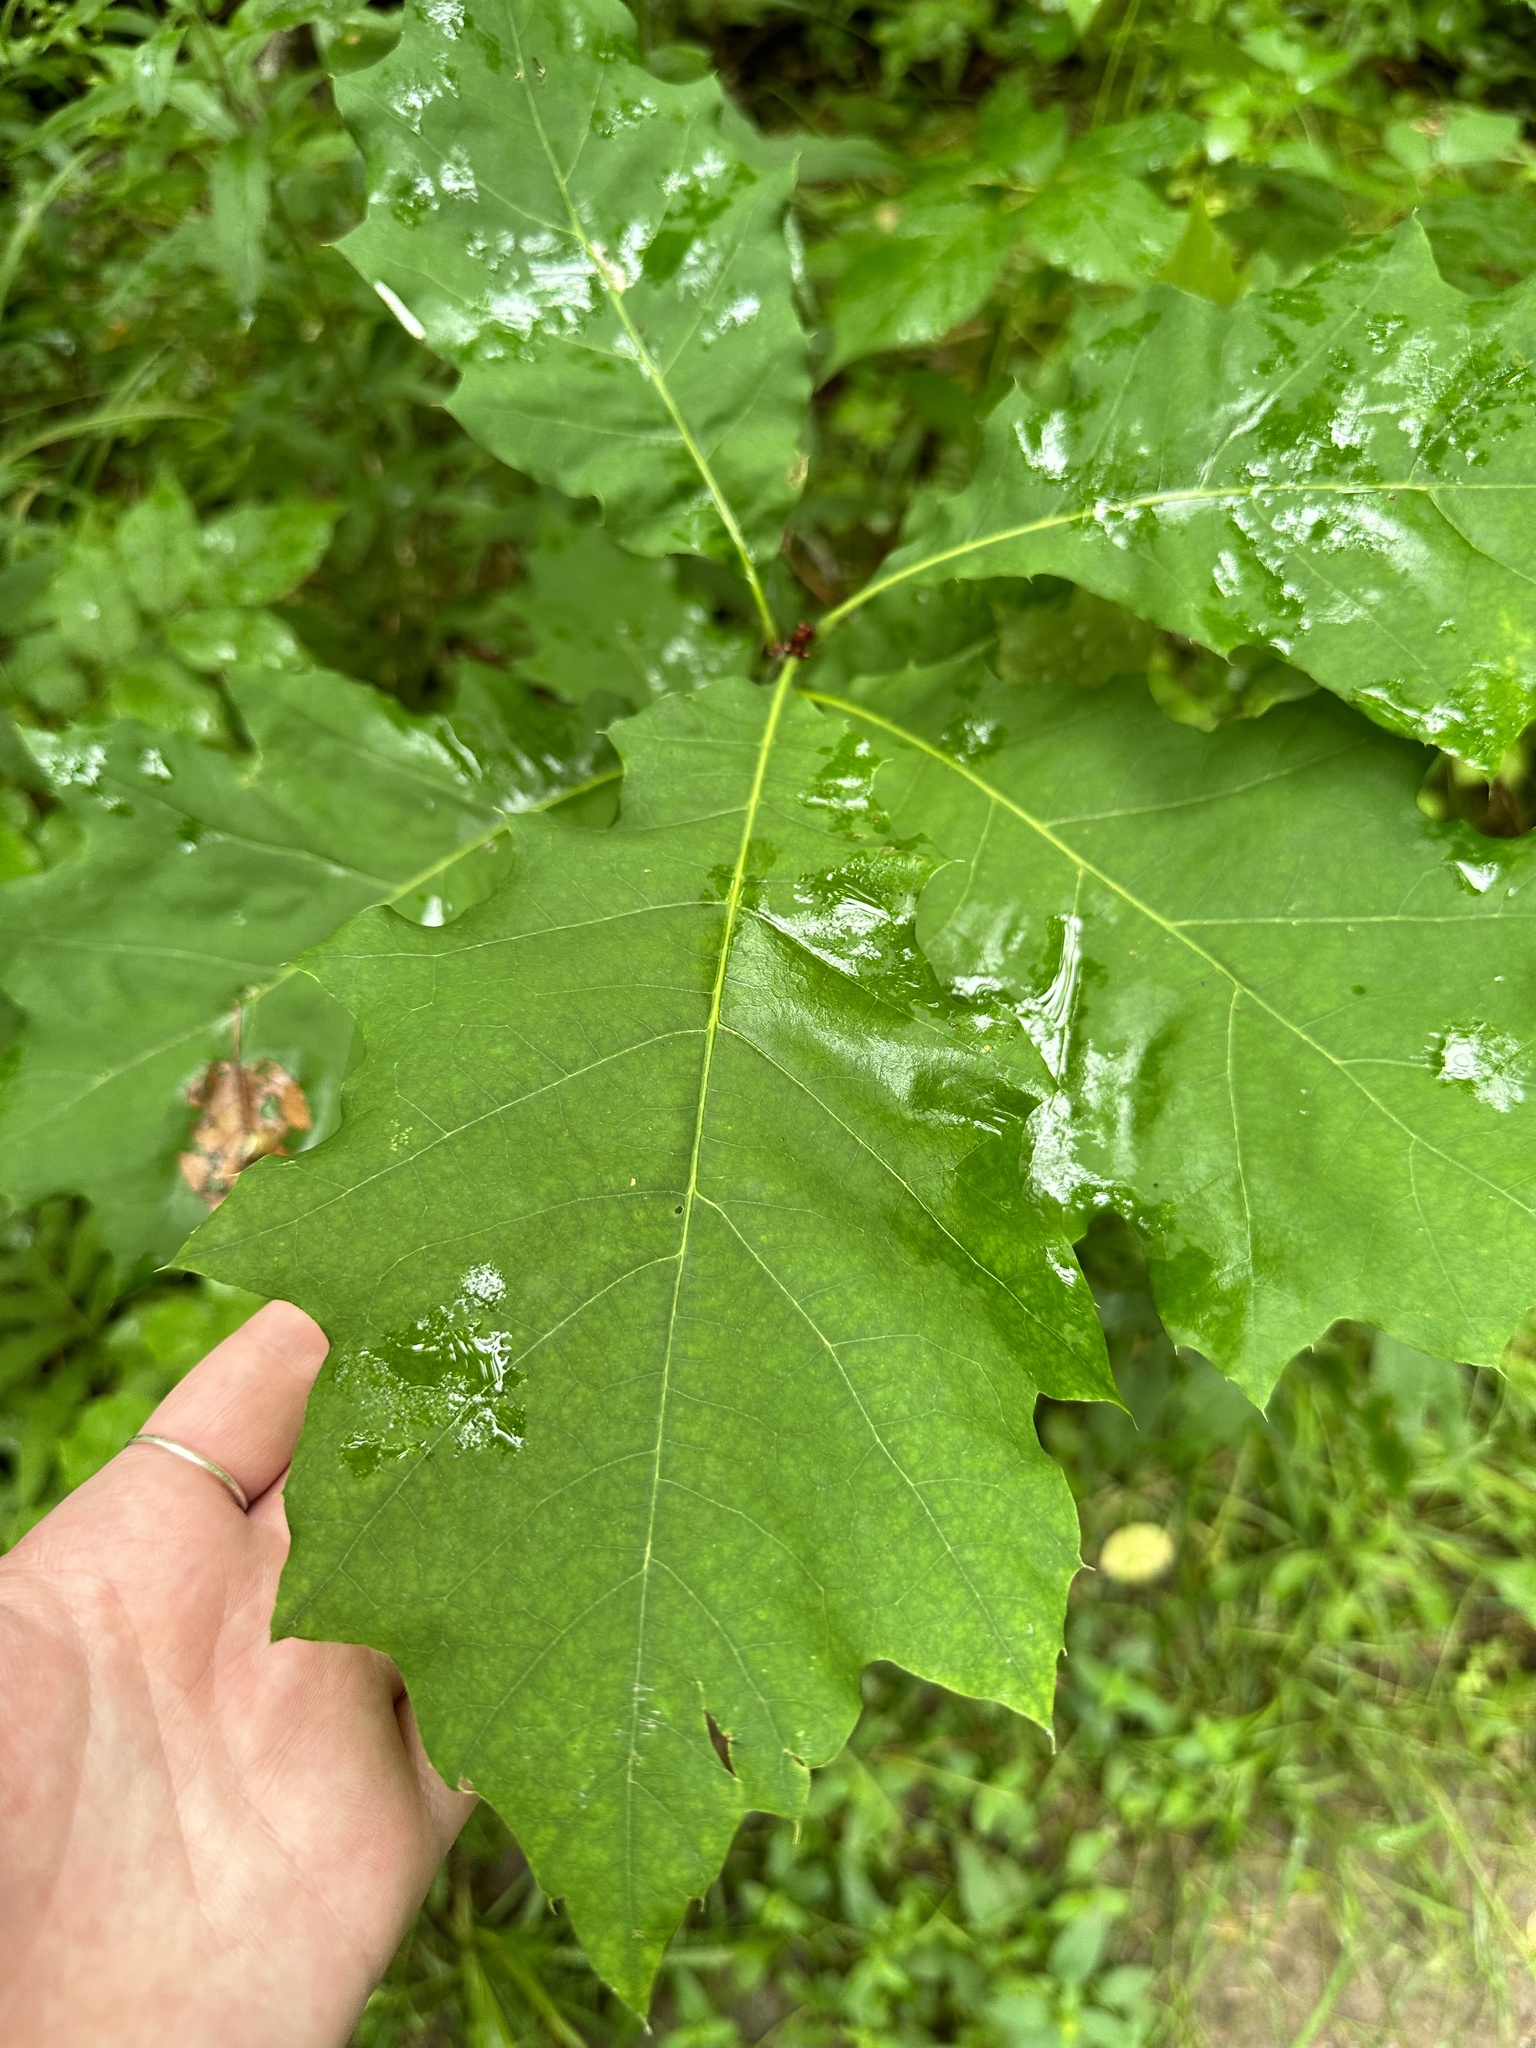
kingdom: Plantae
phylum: Tracheophyta
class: Magnoliopsida
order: Fagales
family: Fagaceae
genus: Quercus
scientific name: Quercus rubra
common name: Red oak
